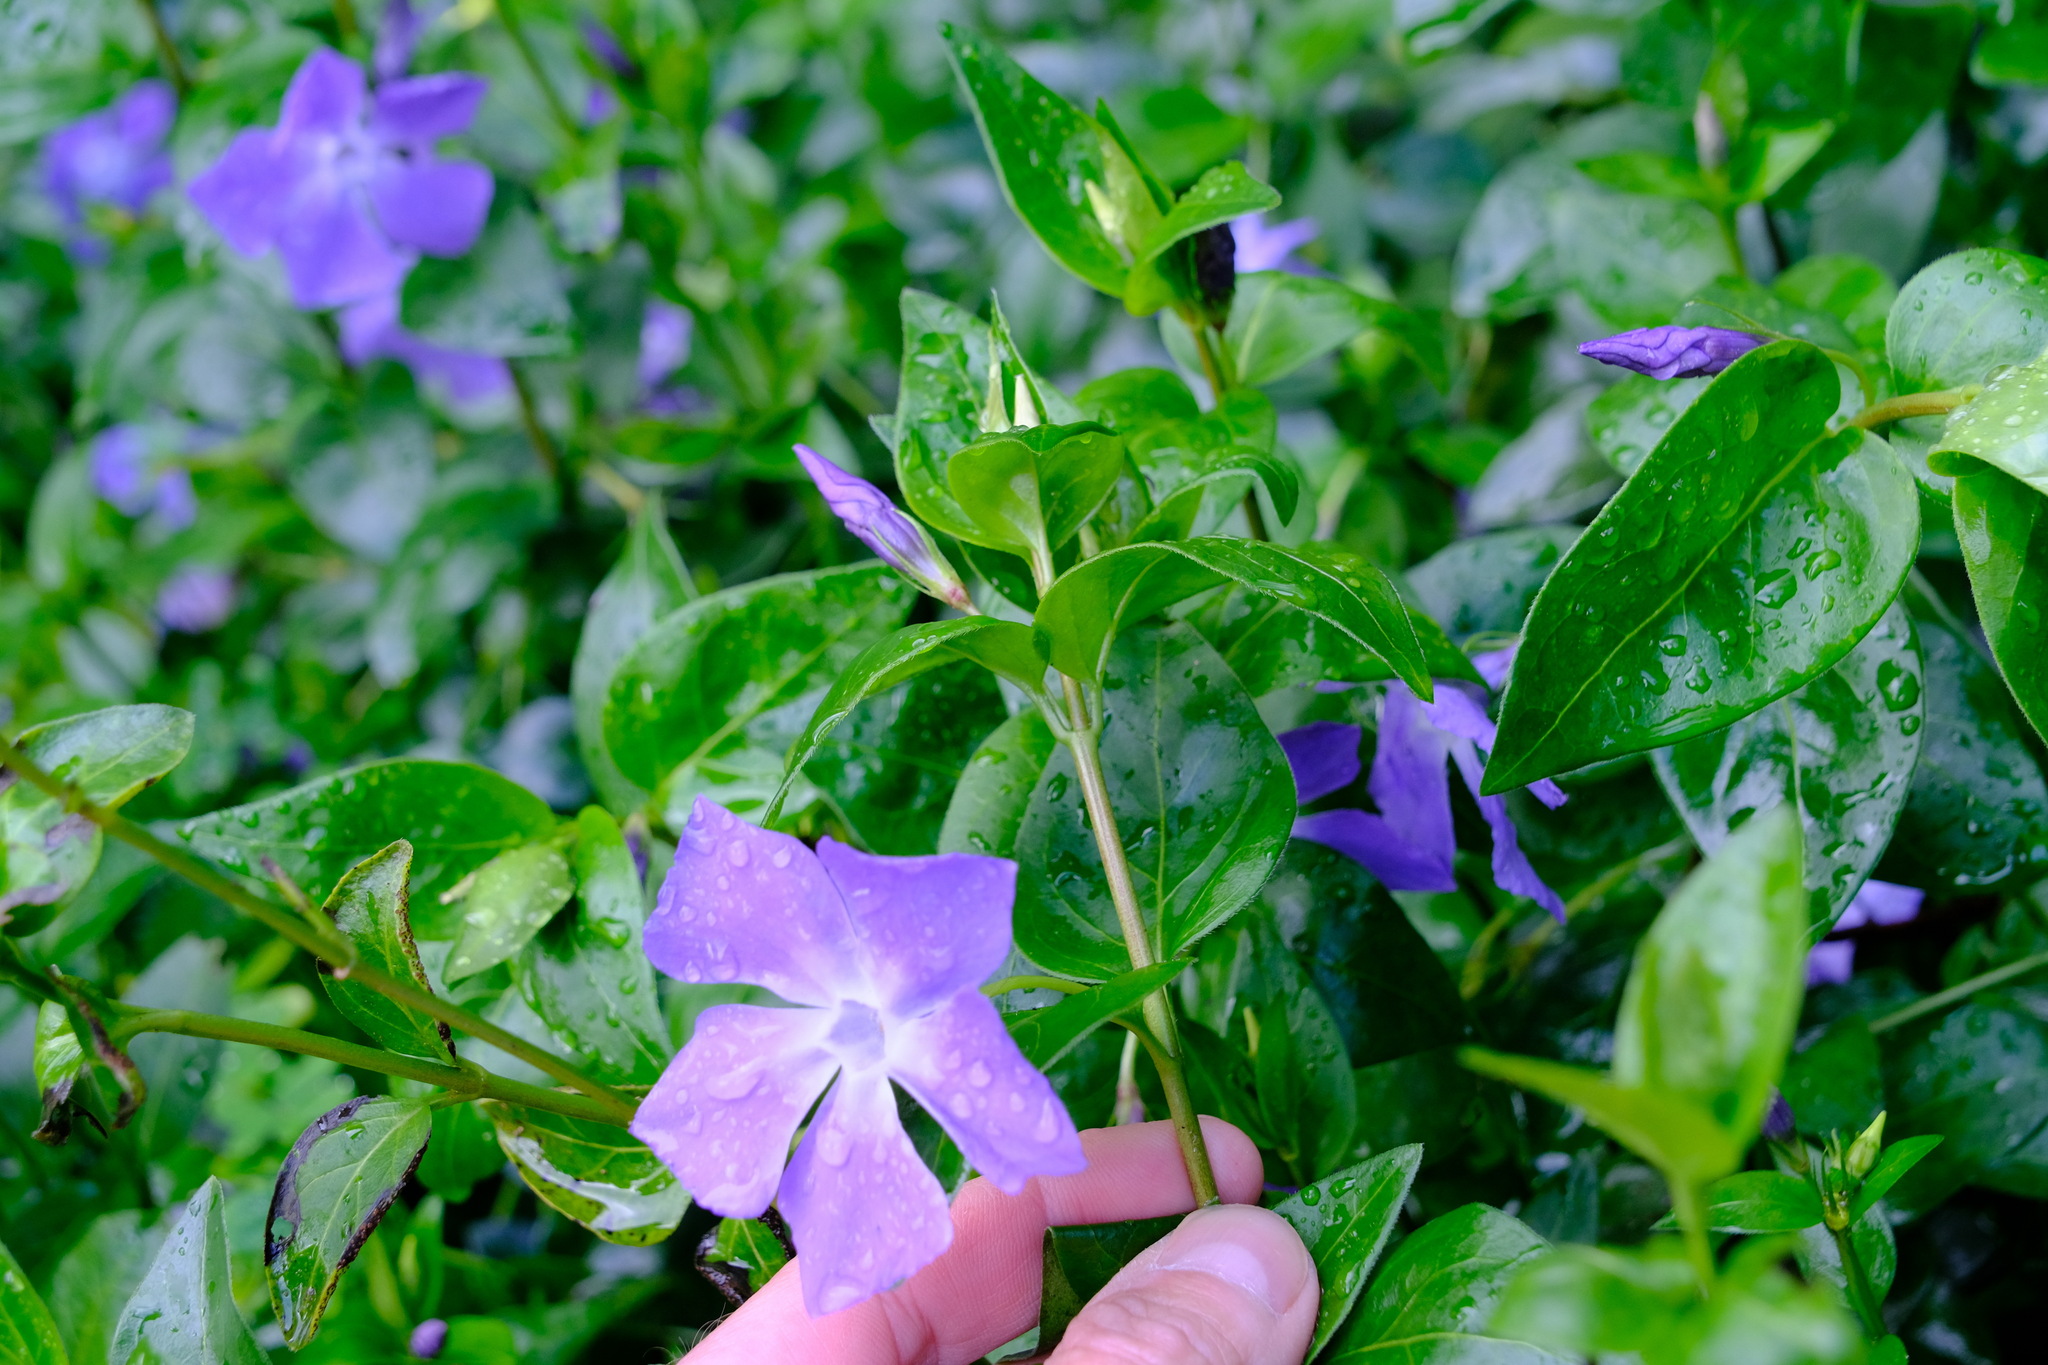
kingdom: Plantae
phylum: Tracheophyta
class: Magnoliopsida
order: Gentianales
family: Apocynaceae
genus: Vinca
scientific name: Vinca major
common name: Greater periwinkle
